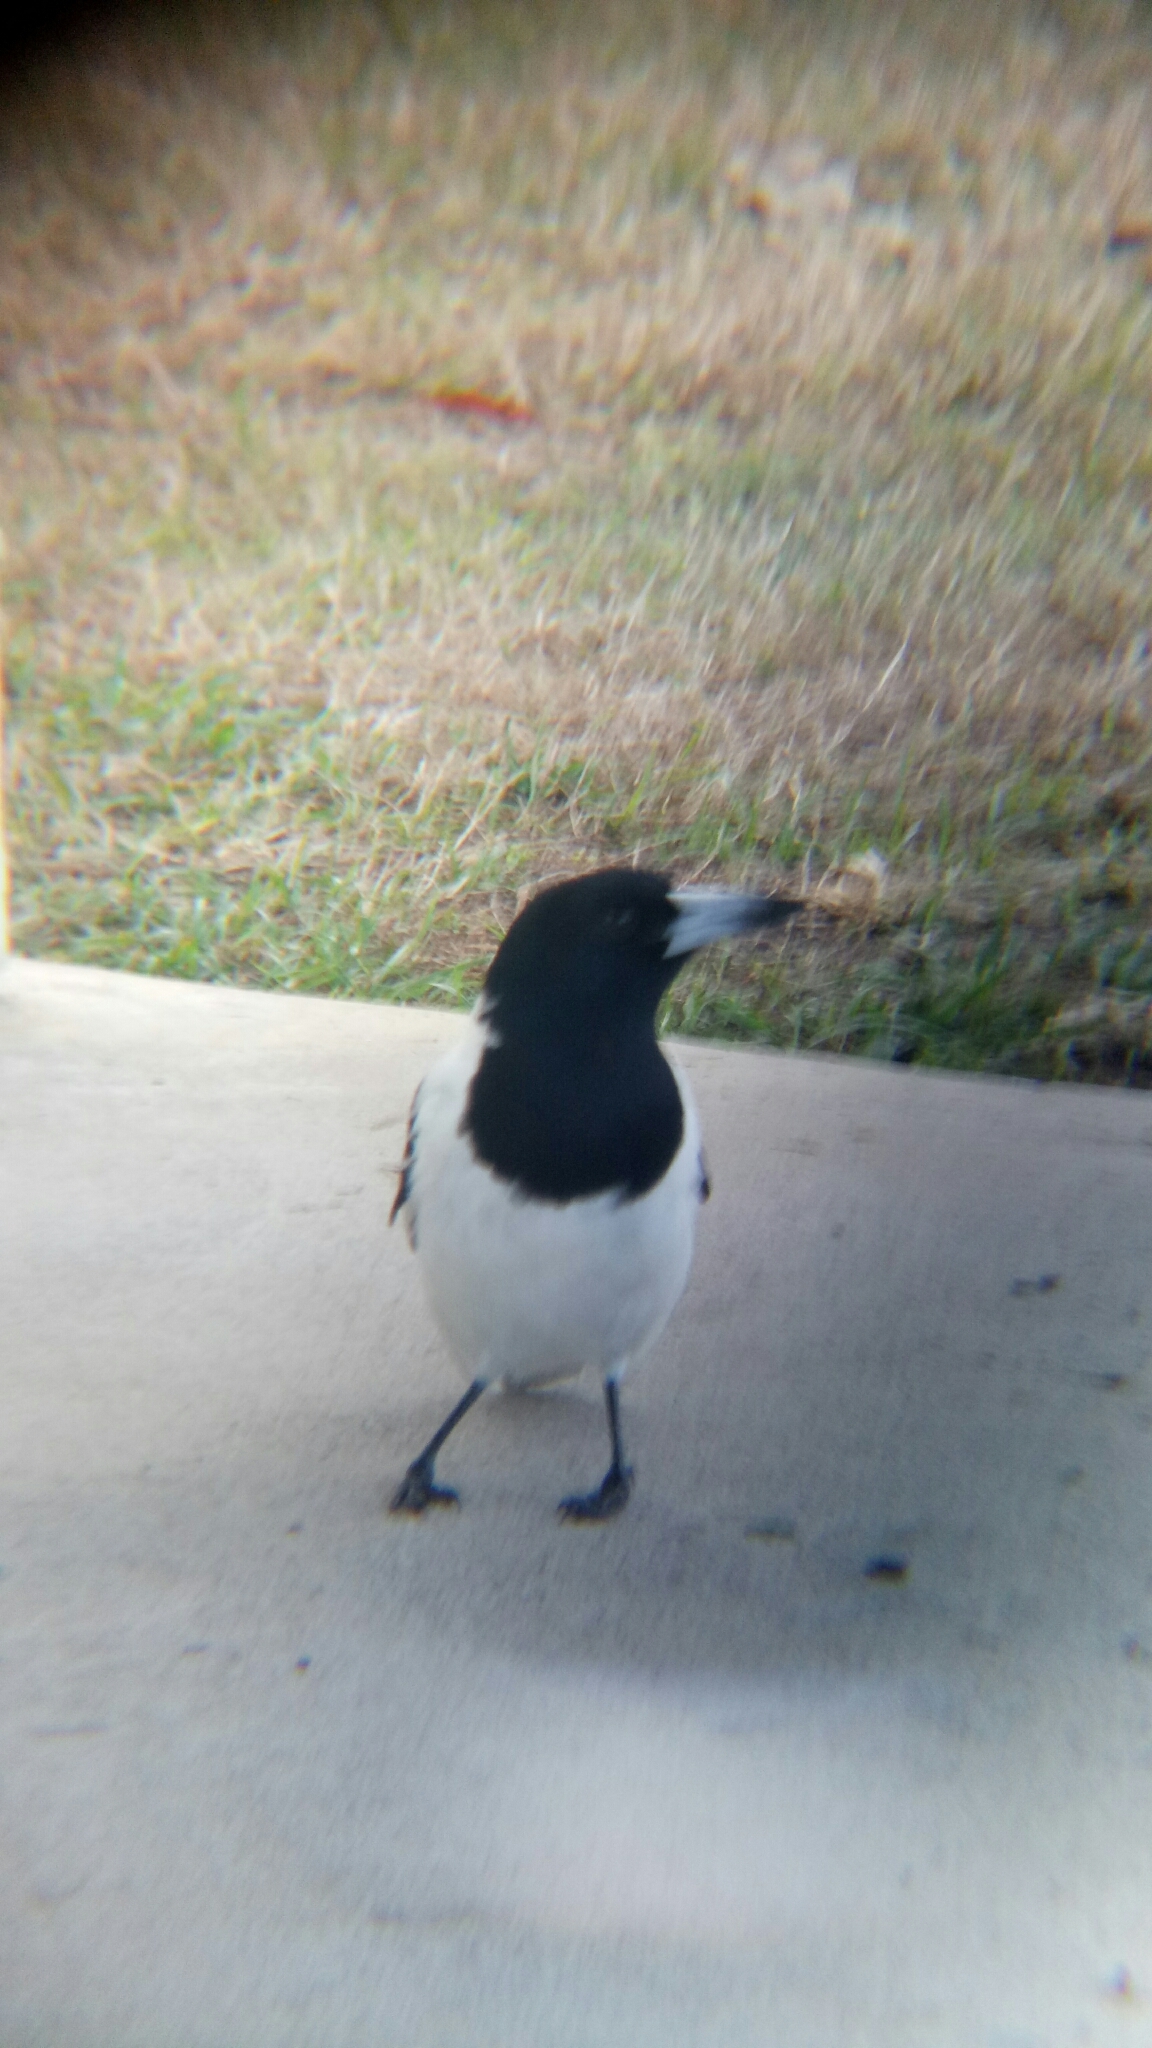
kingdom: Animalia
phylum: Chordata
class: Aves
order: Passeriformes
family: Cracticidae
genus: Cracticus
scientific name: Cracticus nigrogularis
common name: Pied butcherbird
